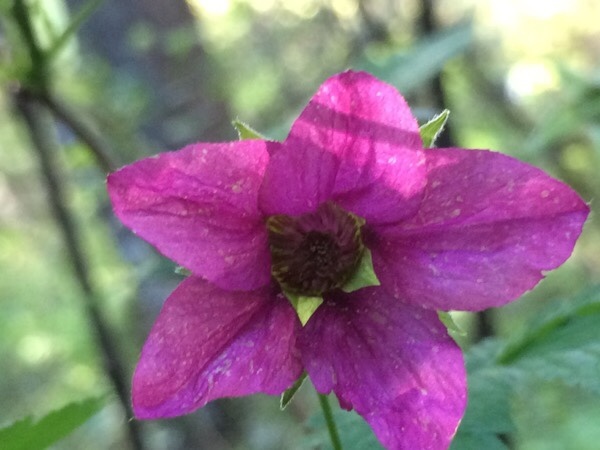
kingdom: Plantae
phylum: Tracheophyta
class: Magnoliopsida
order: Rosales
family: Rosaceae
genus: Rubus
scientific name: Rubus spectabilis
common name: Salmonberry
